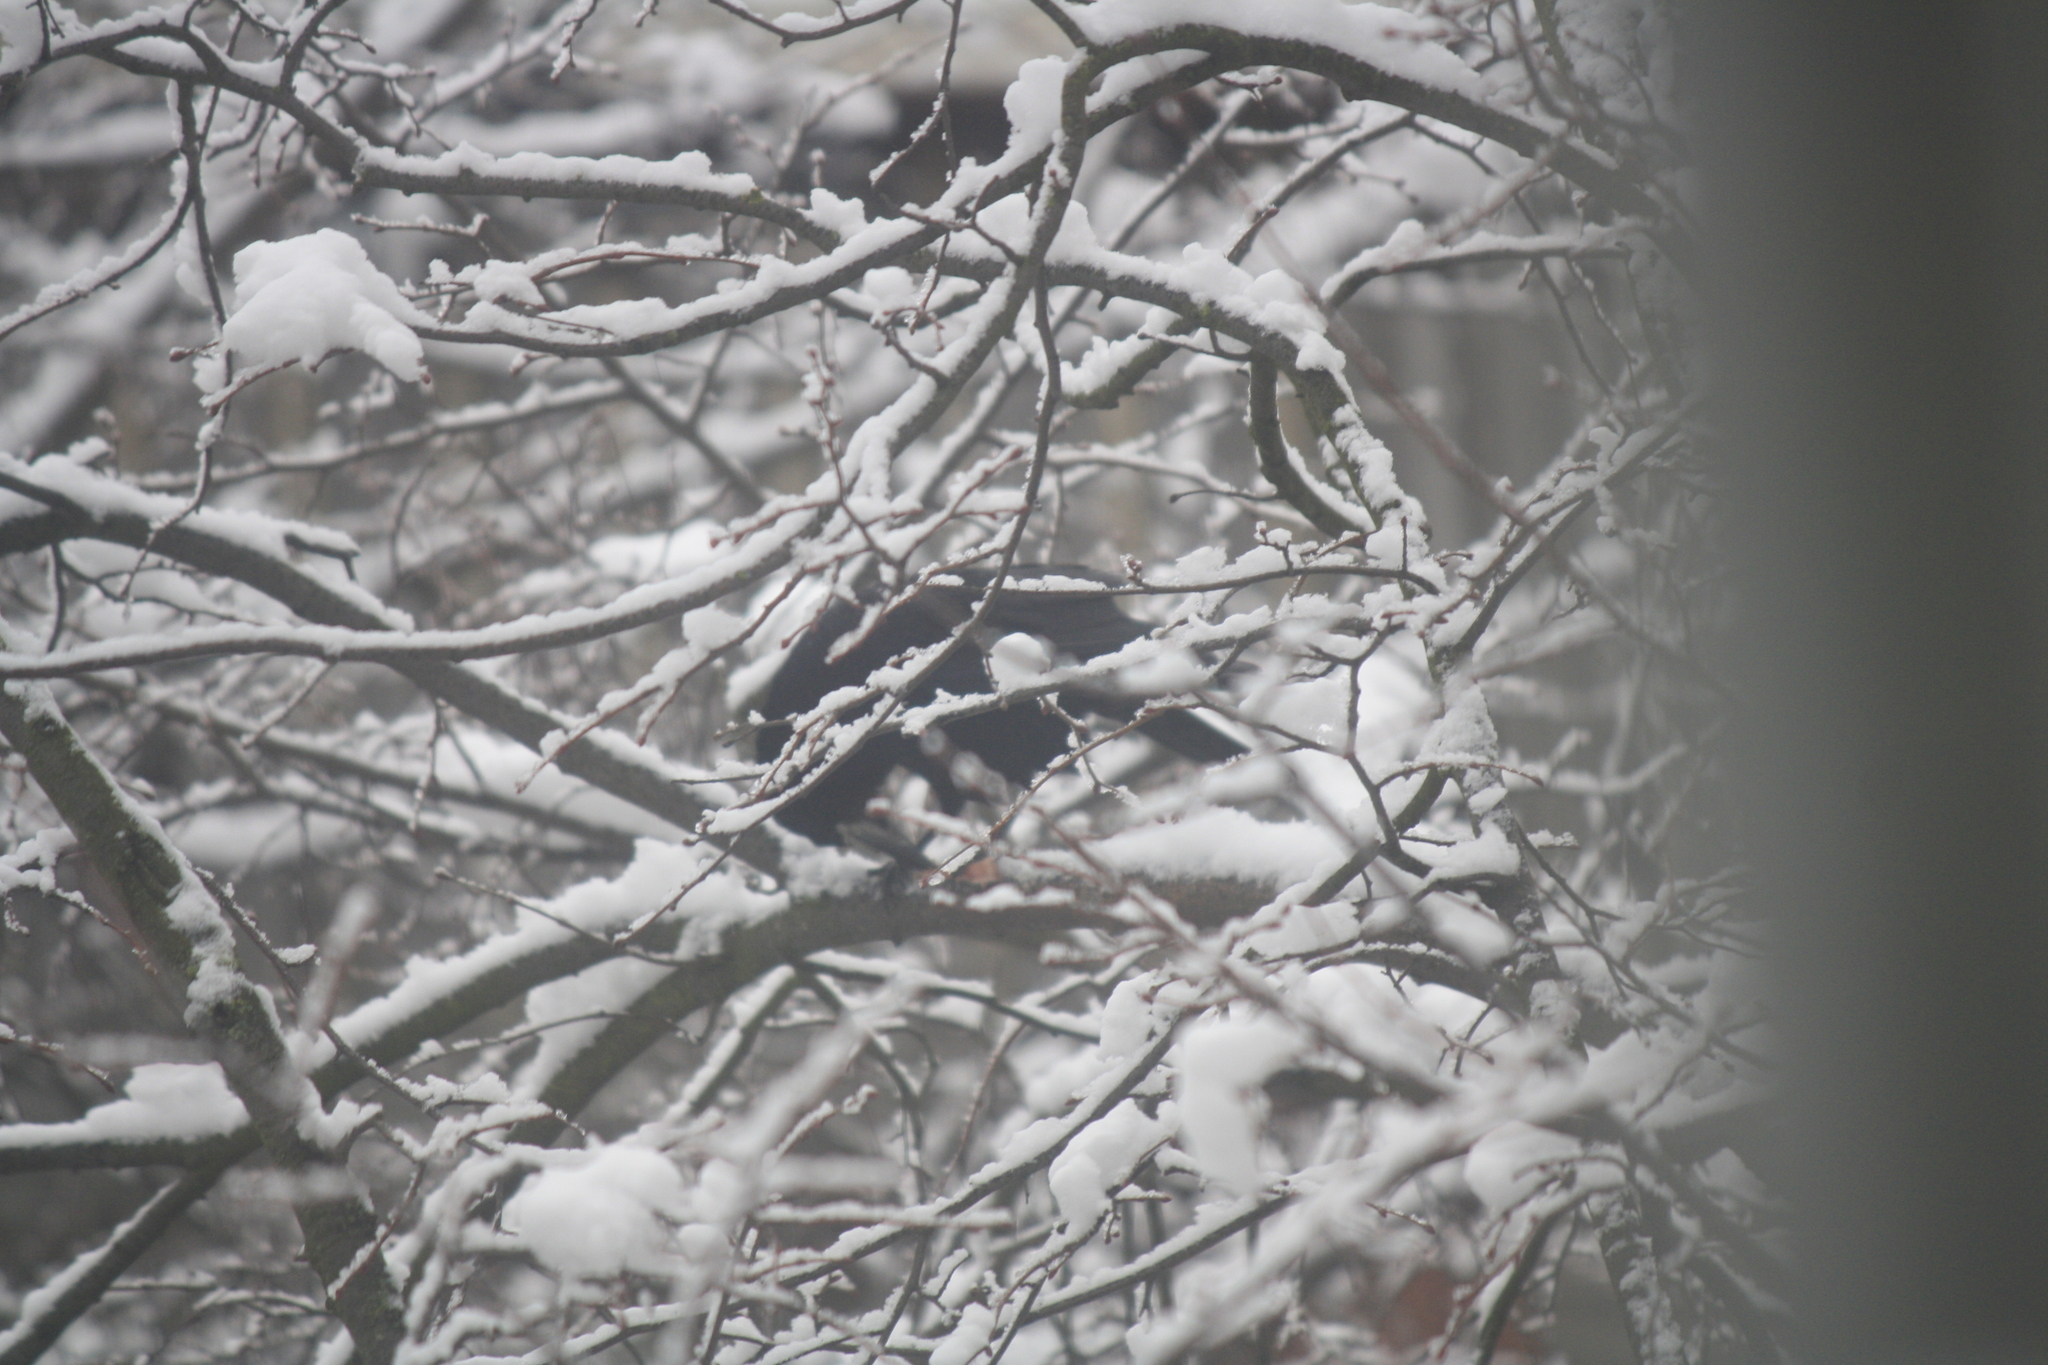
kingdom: Animalia
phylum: Chordata
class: Aves
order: Passeriformes
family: Corvidae
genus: Corvus
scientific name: Corvus frugilegus
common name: Rook
